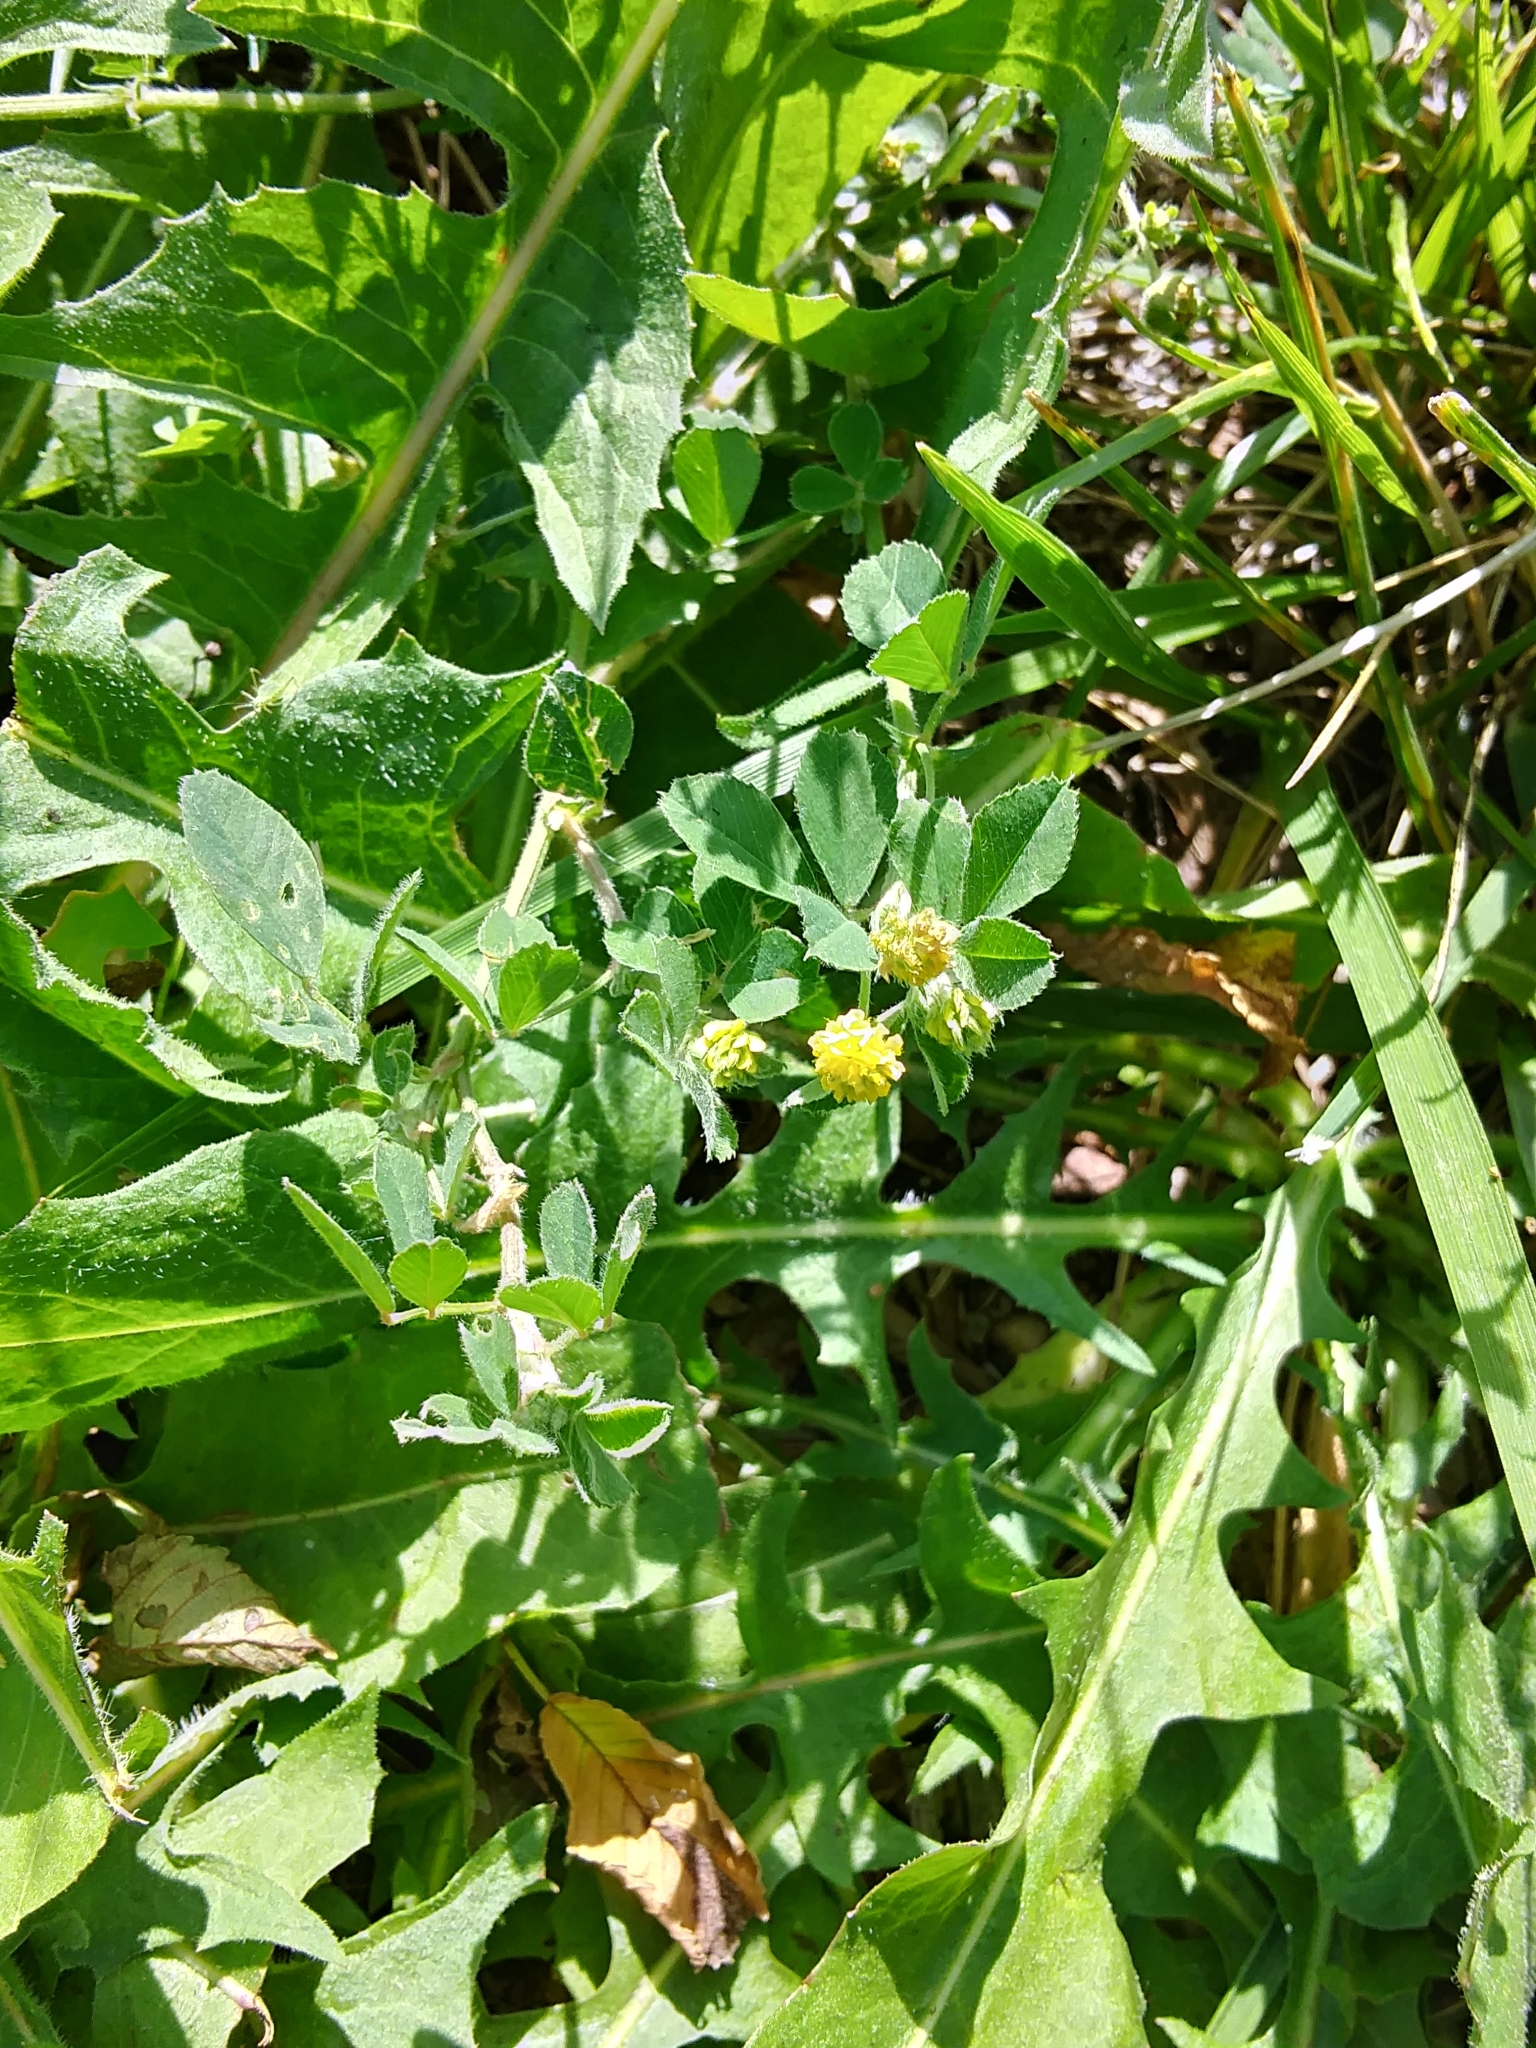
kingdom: Plantae
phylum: Tracheophyta
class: Magnoliopsida
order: Fabales
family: Fabaceae
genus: Medicago
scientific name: Medicago lupulina
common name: Black medick
